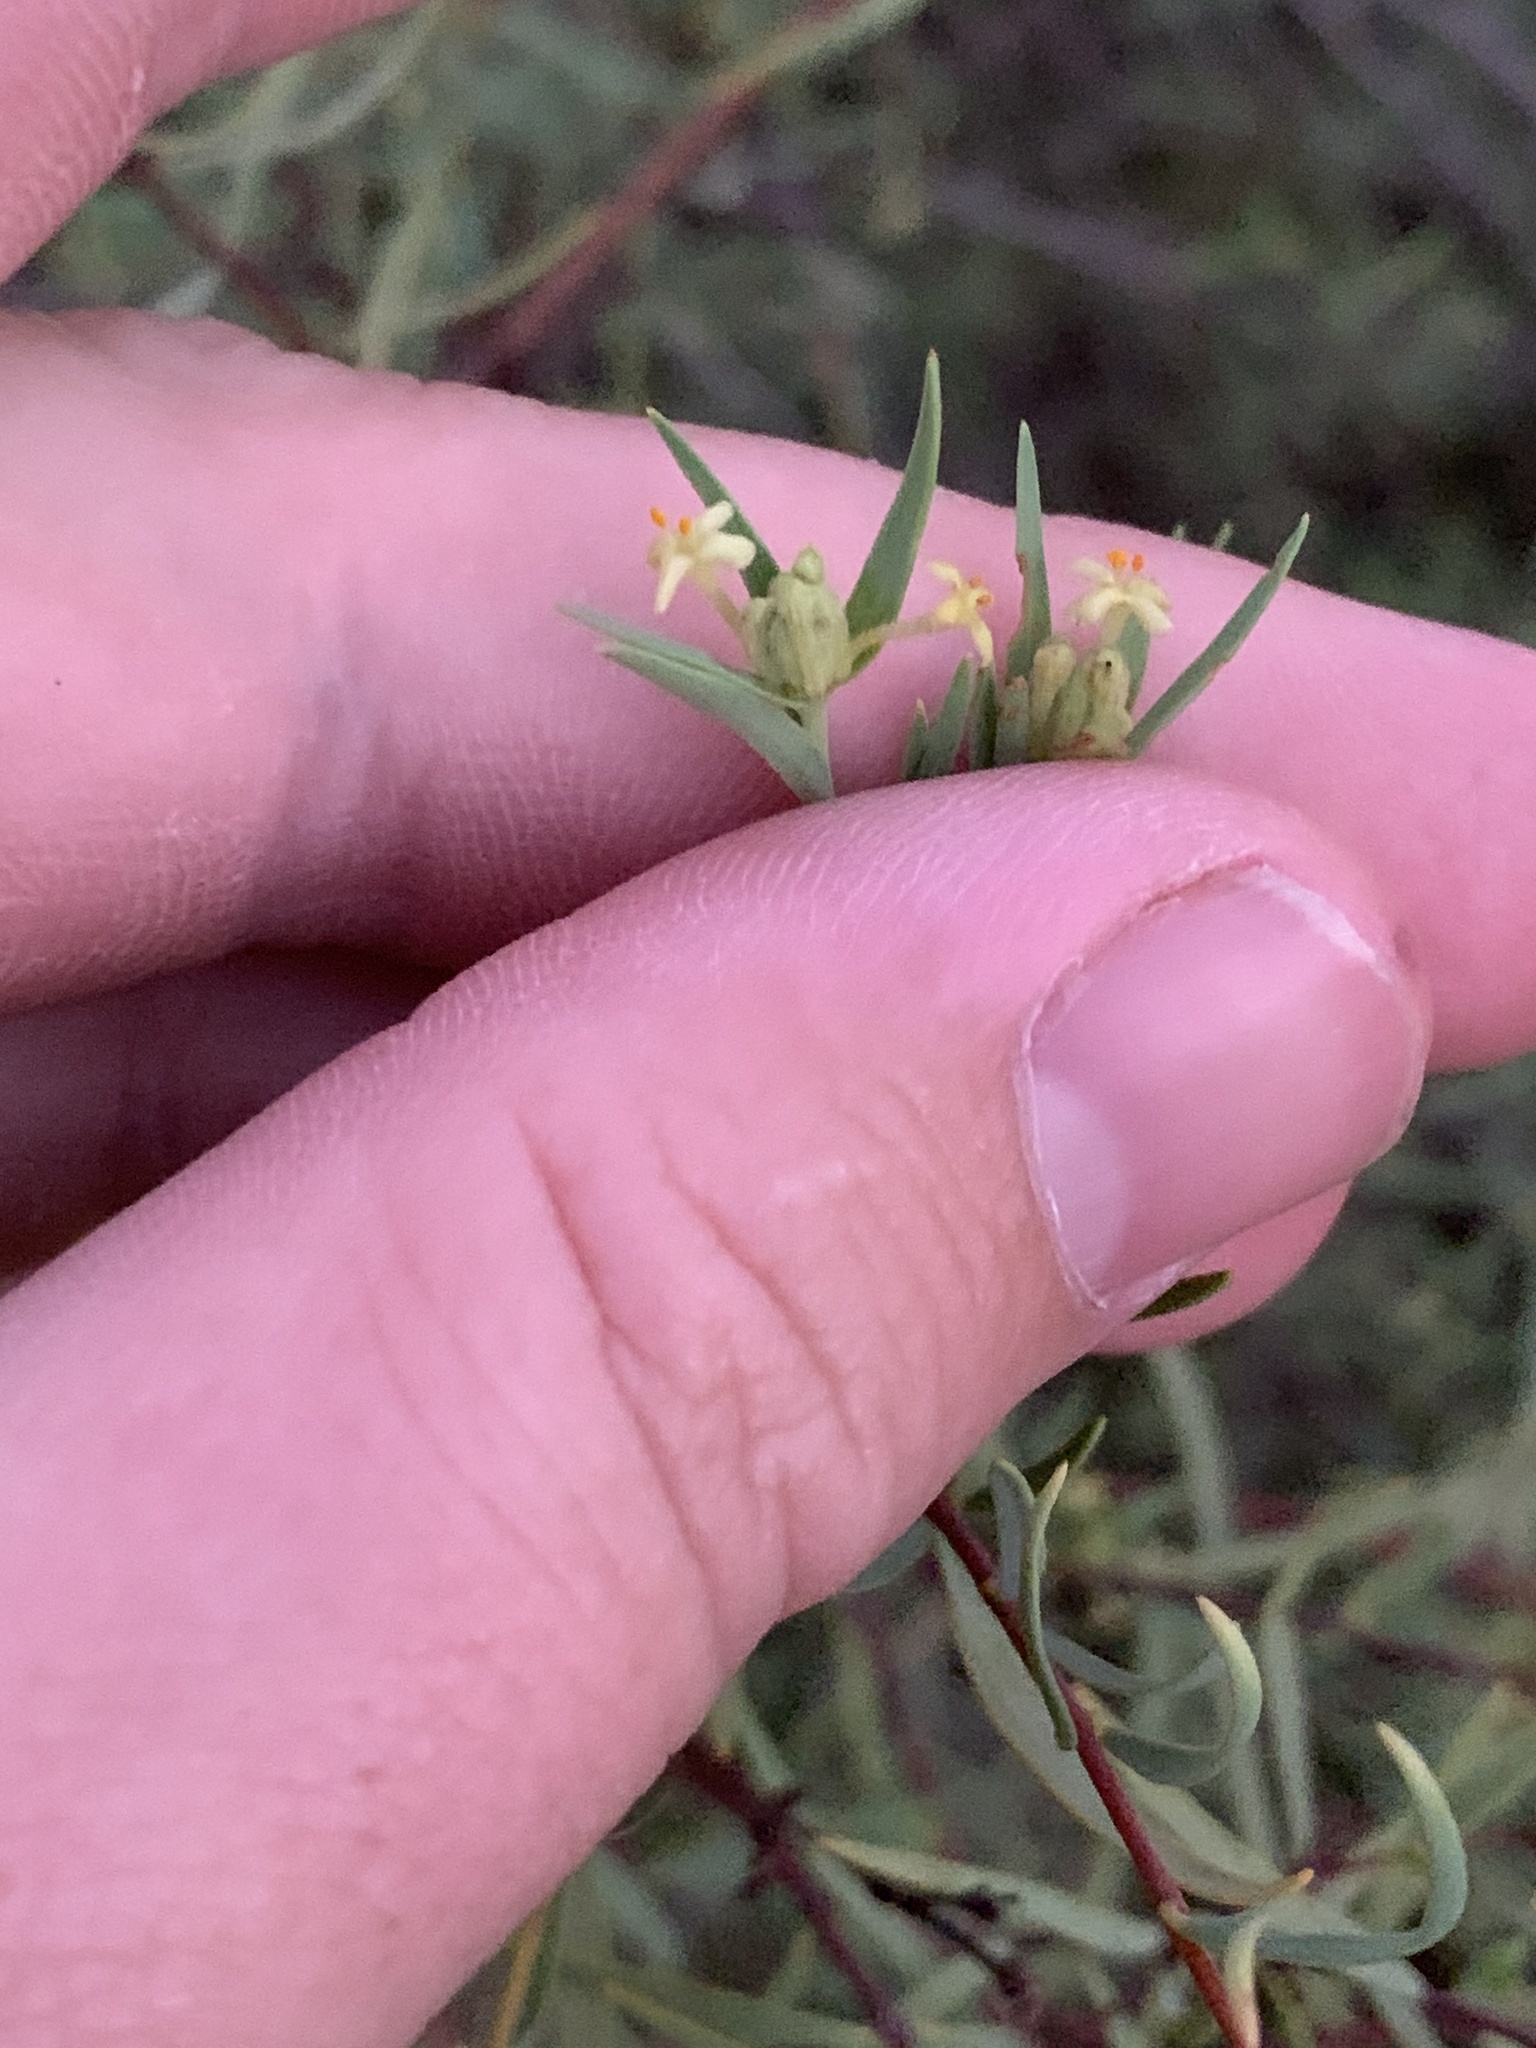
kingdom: Plantae
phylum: Tracheophyta
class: Magnoliopsida
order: Malvales
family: Thymelaeaceae
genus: Pimelea
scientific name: Pimelea microcephala
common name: Mallee riceflower
